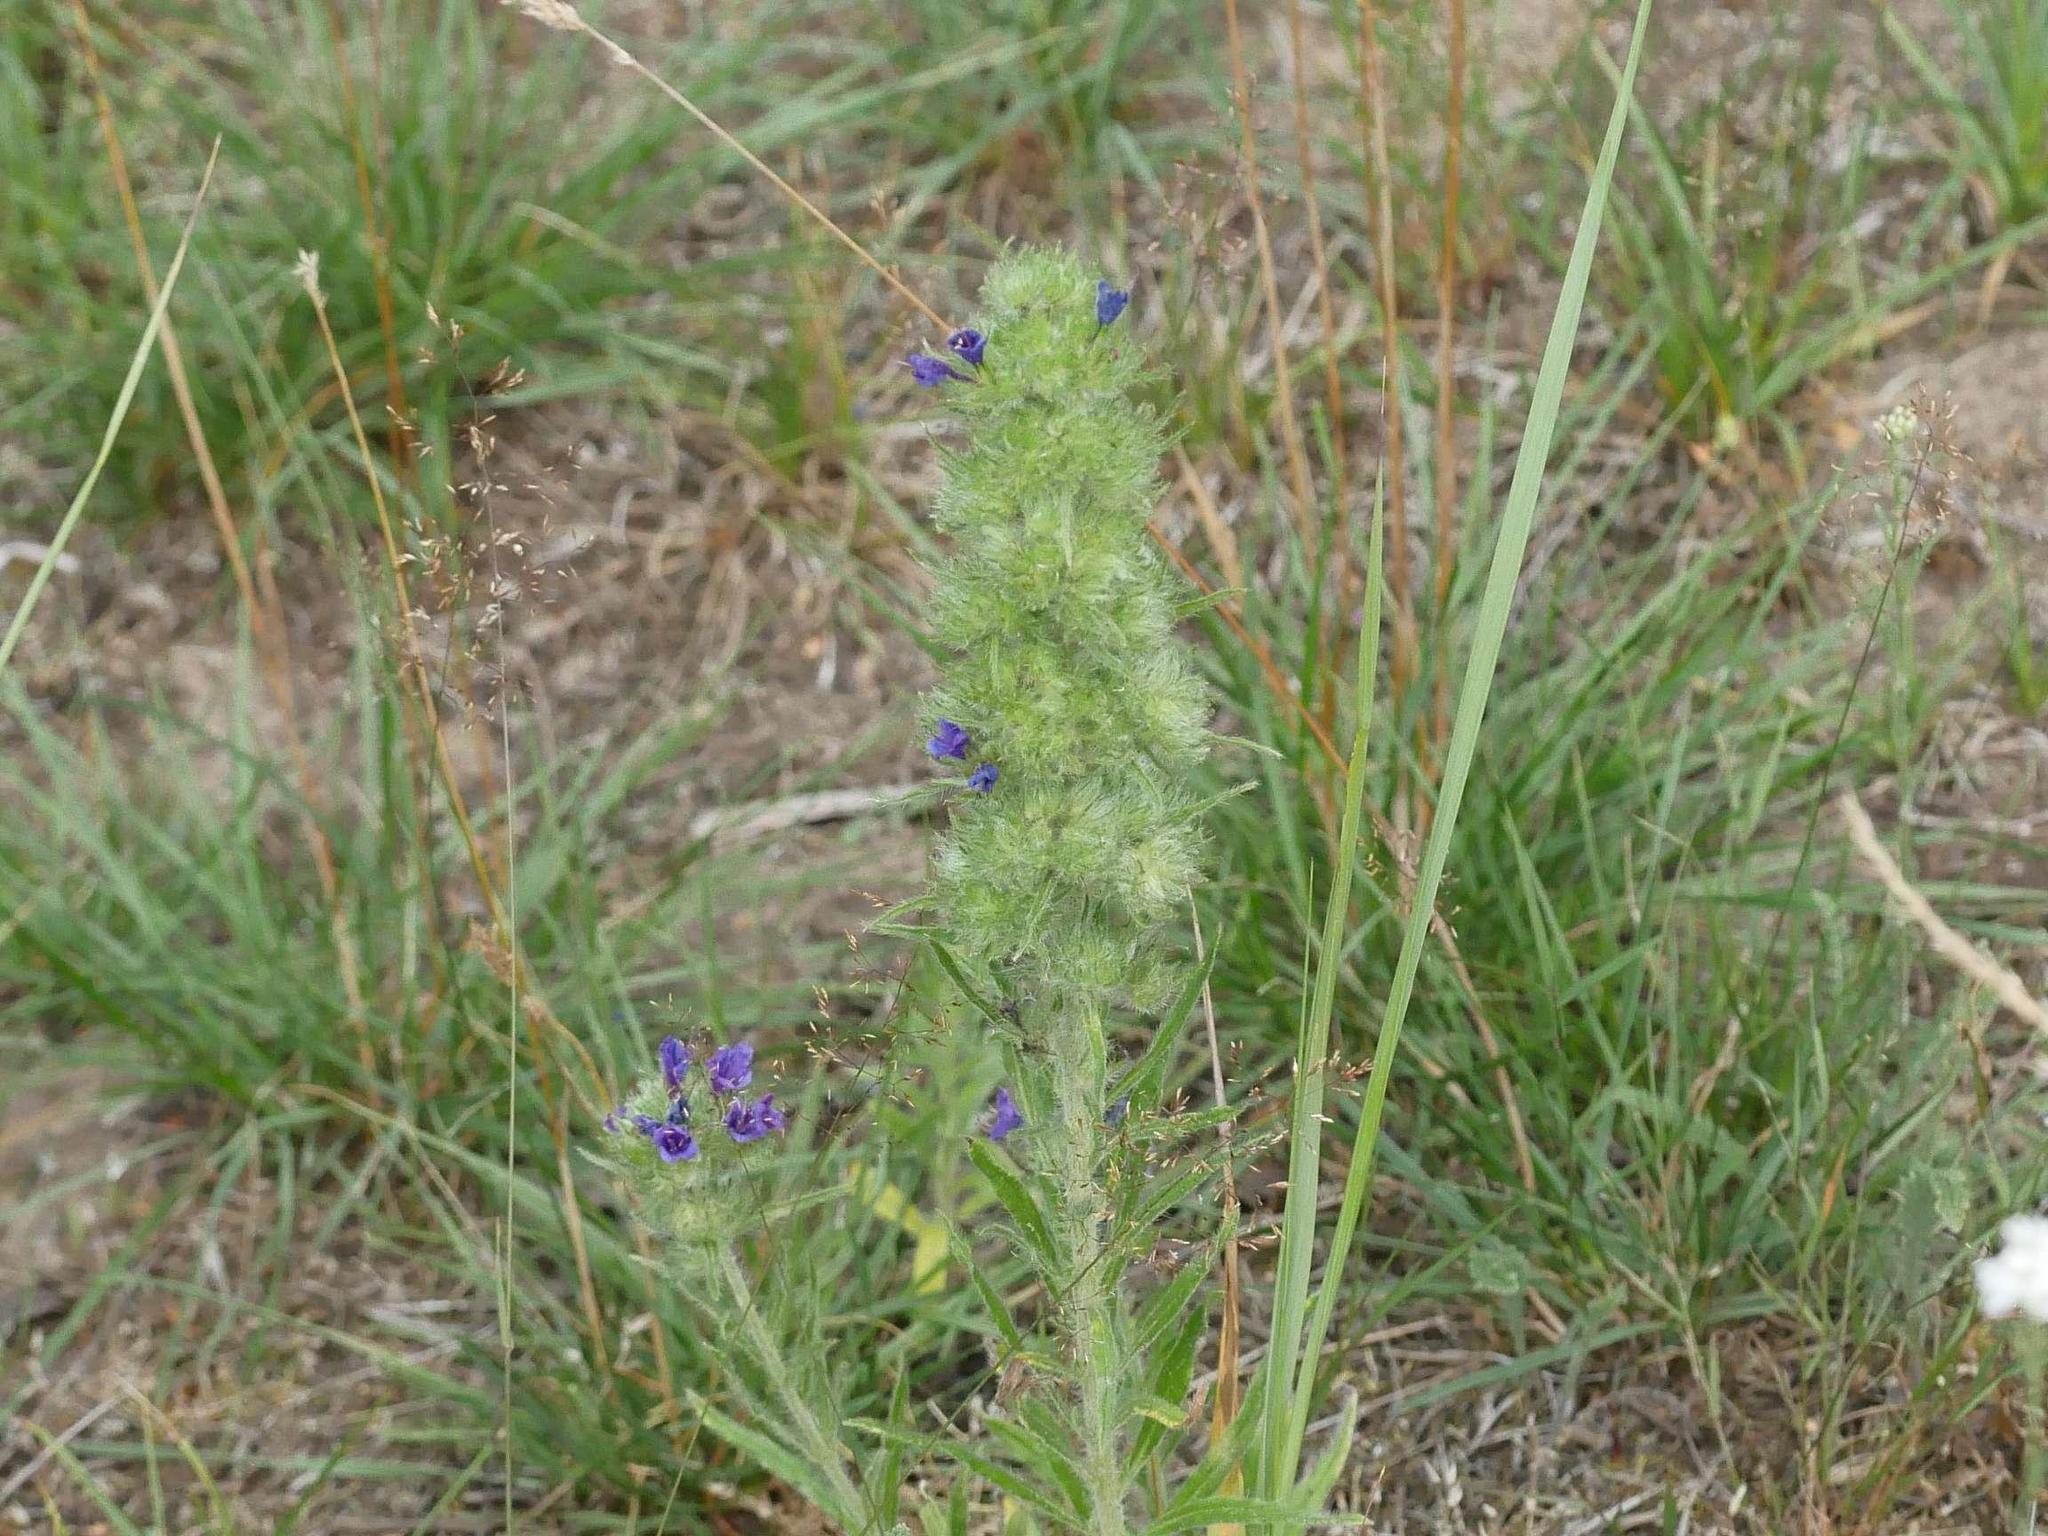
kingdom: Animalia
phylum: Arthropoda
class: Arachnida
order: Trombidiformes
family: Eriophyidae
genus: Aceria
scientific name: Aceria echii
